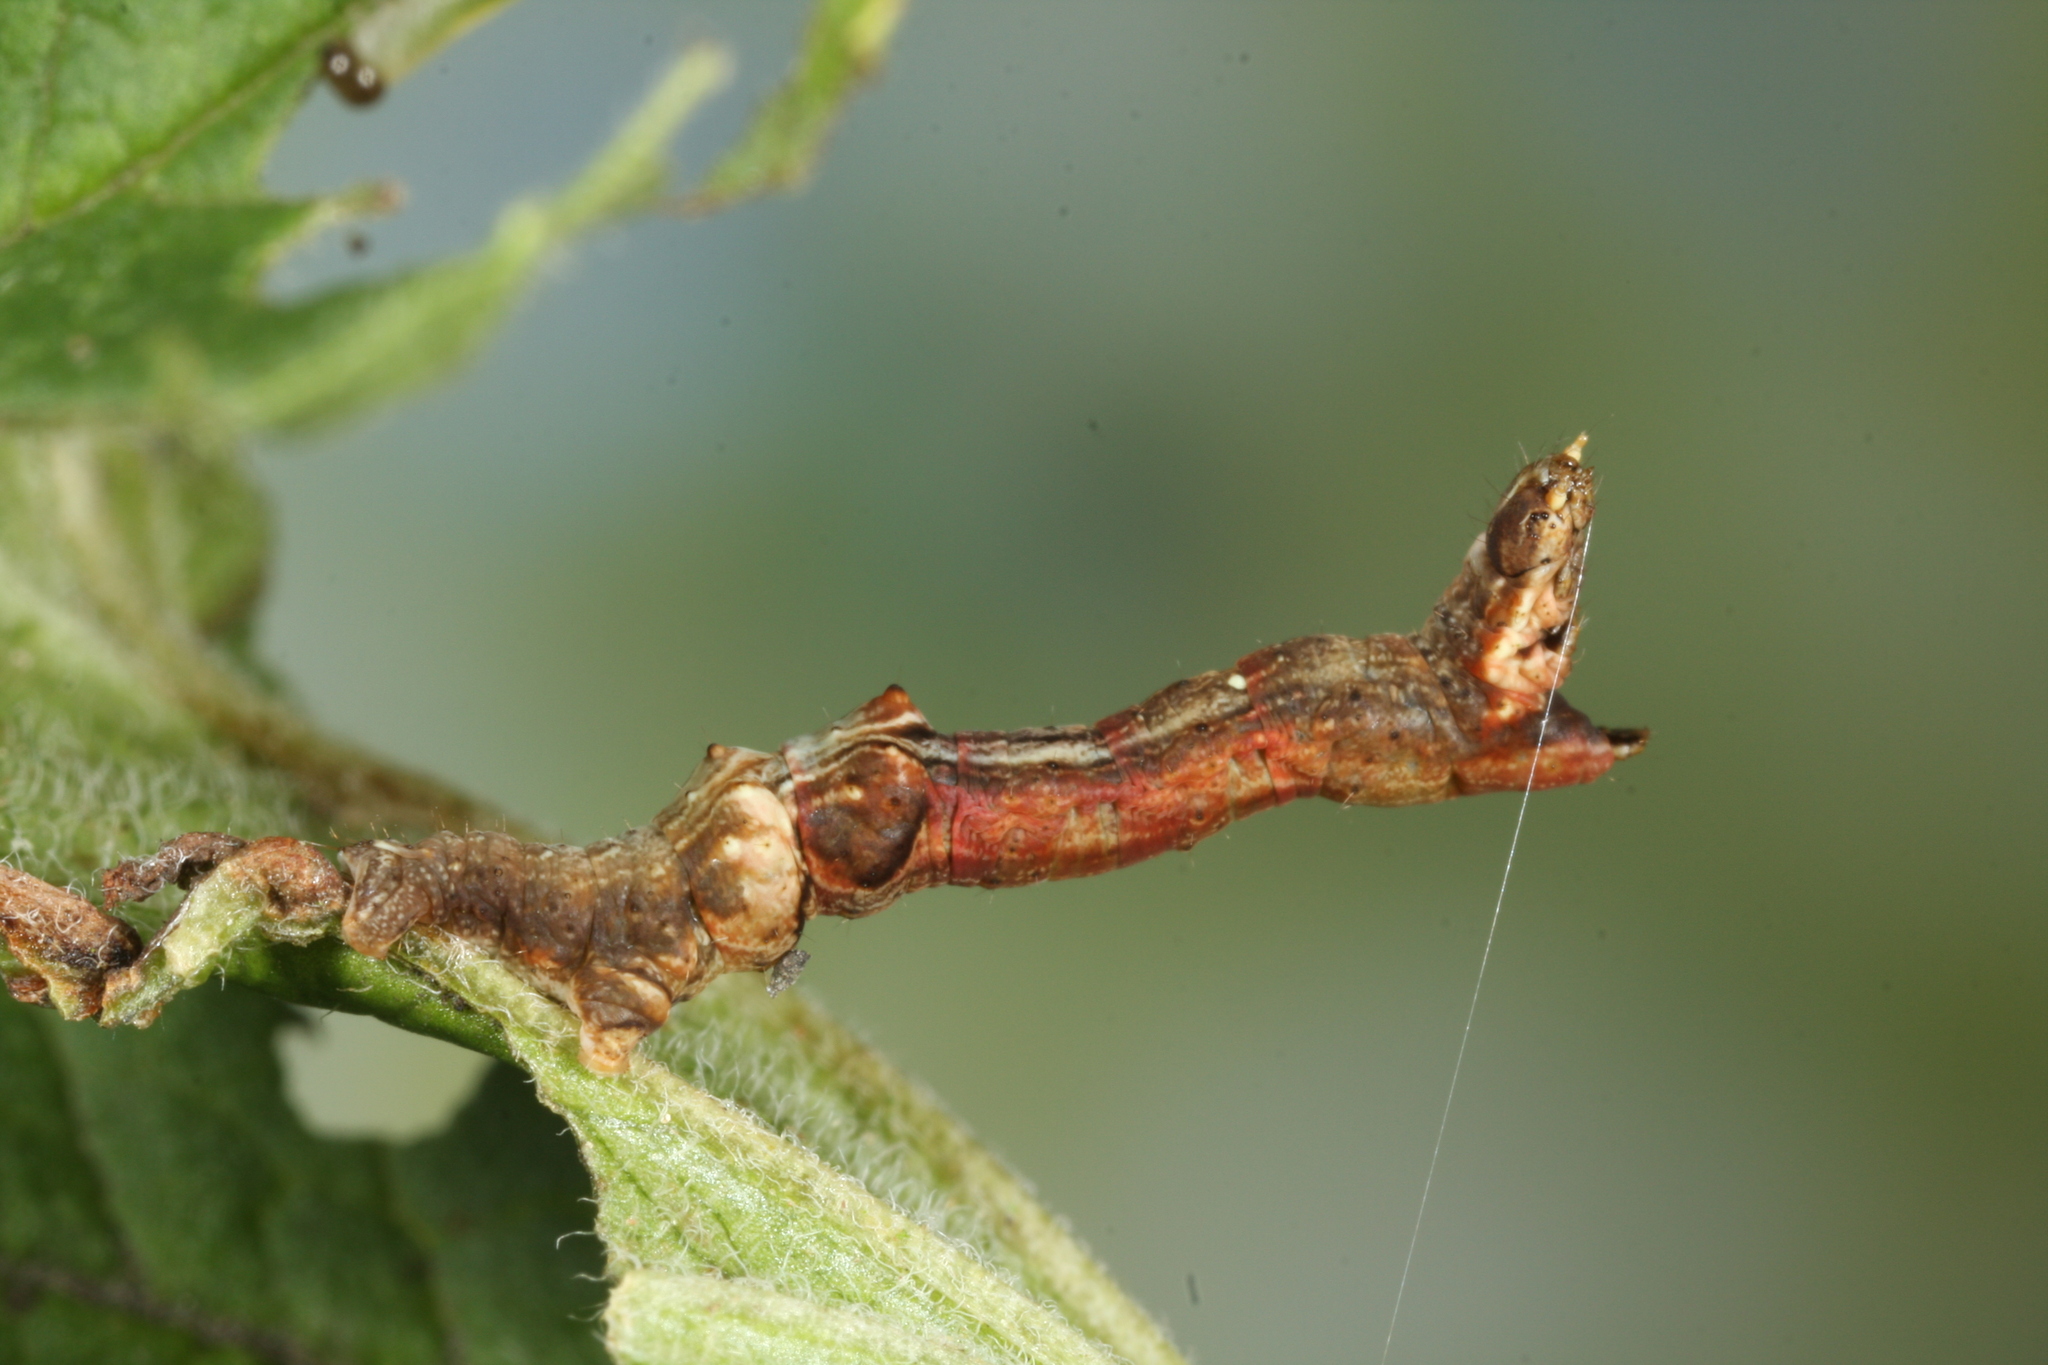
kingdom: Animalia
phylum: Arthropoda
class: Insecta
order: Lepidoptera
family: Geometridae
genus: Selenia
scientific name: Selenia dentaria
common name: Early thorn
